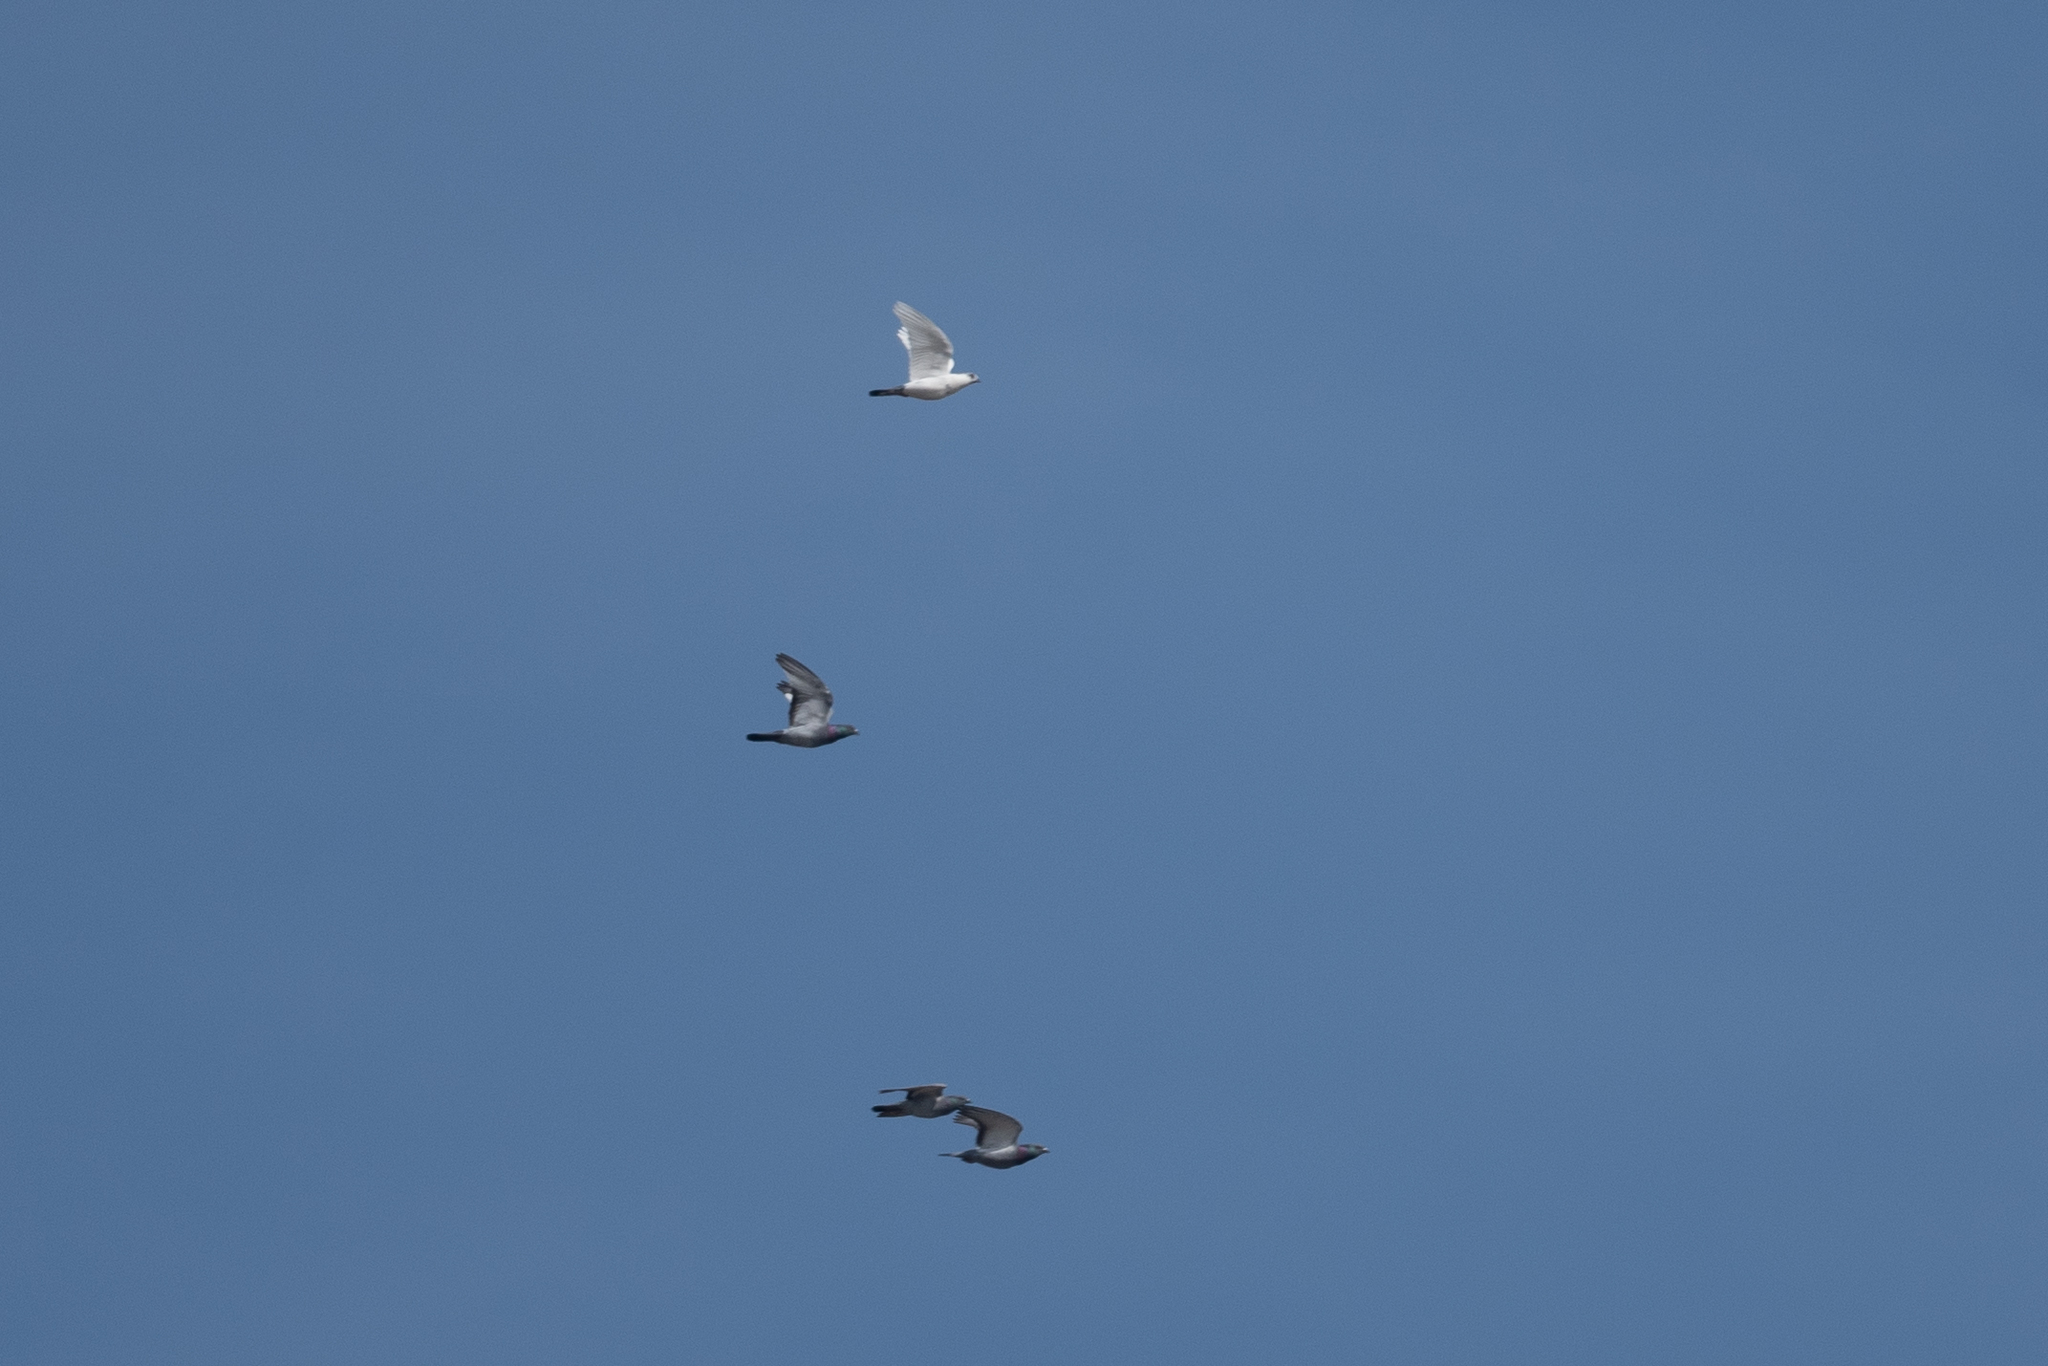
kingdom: Animalia
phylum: Chordata
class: Aves
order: Columbiformes
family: Columbidae
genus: Columba
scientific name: Columba livia
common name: Rock pigeon
